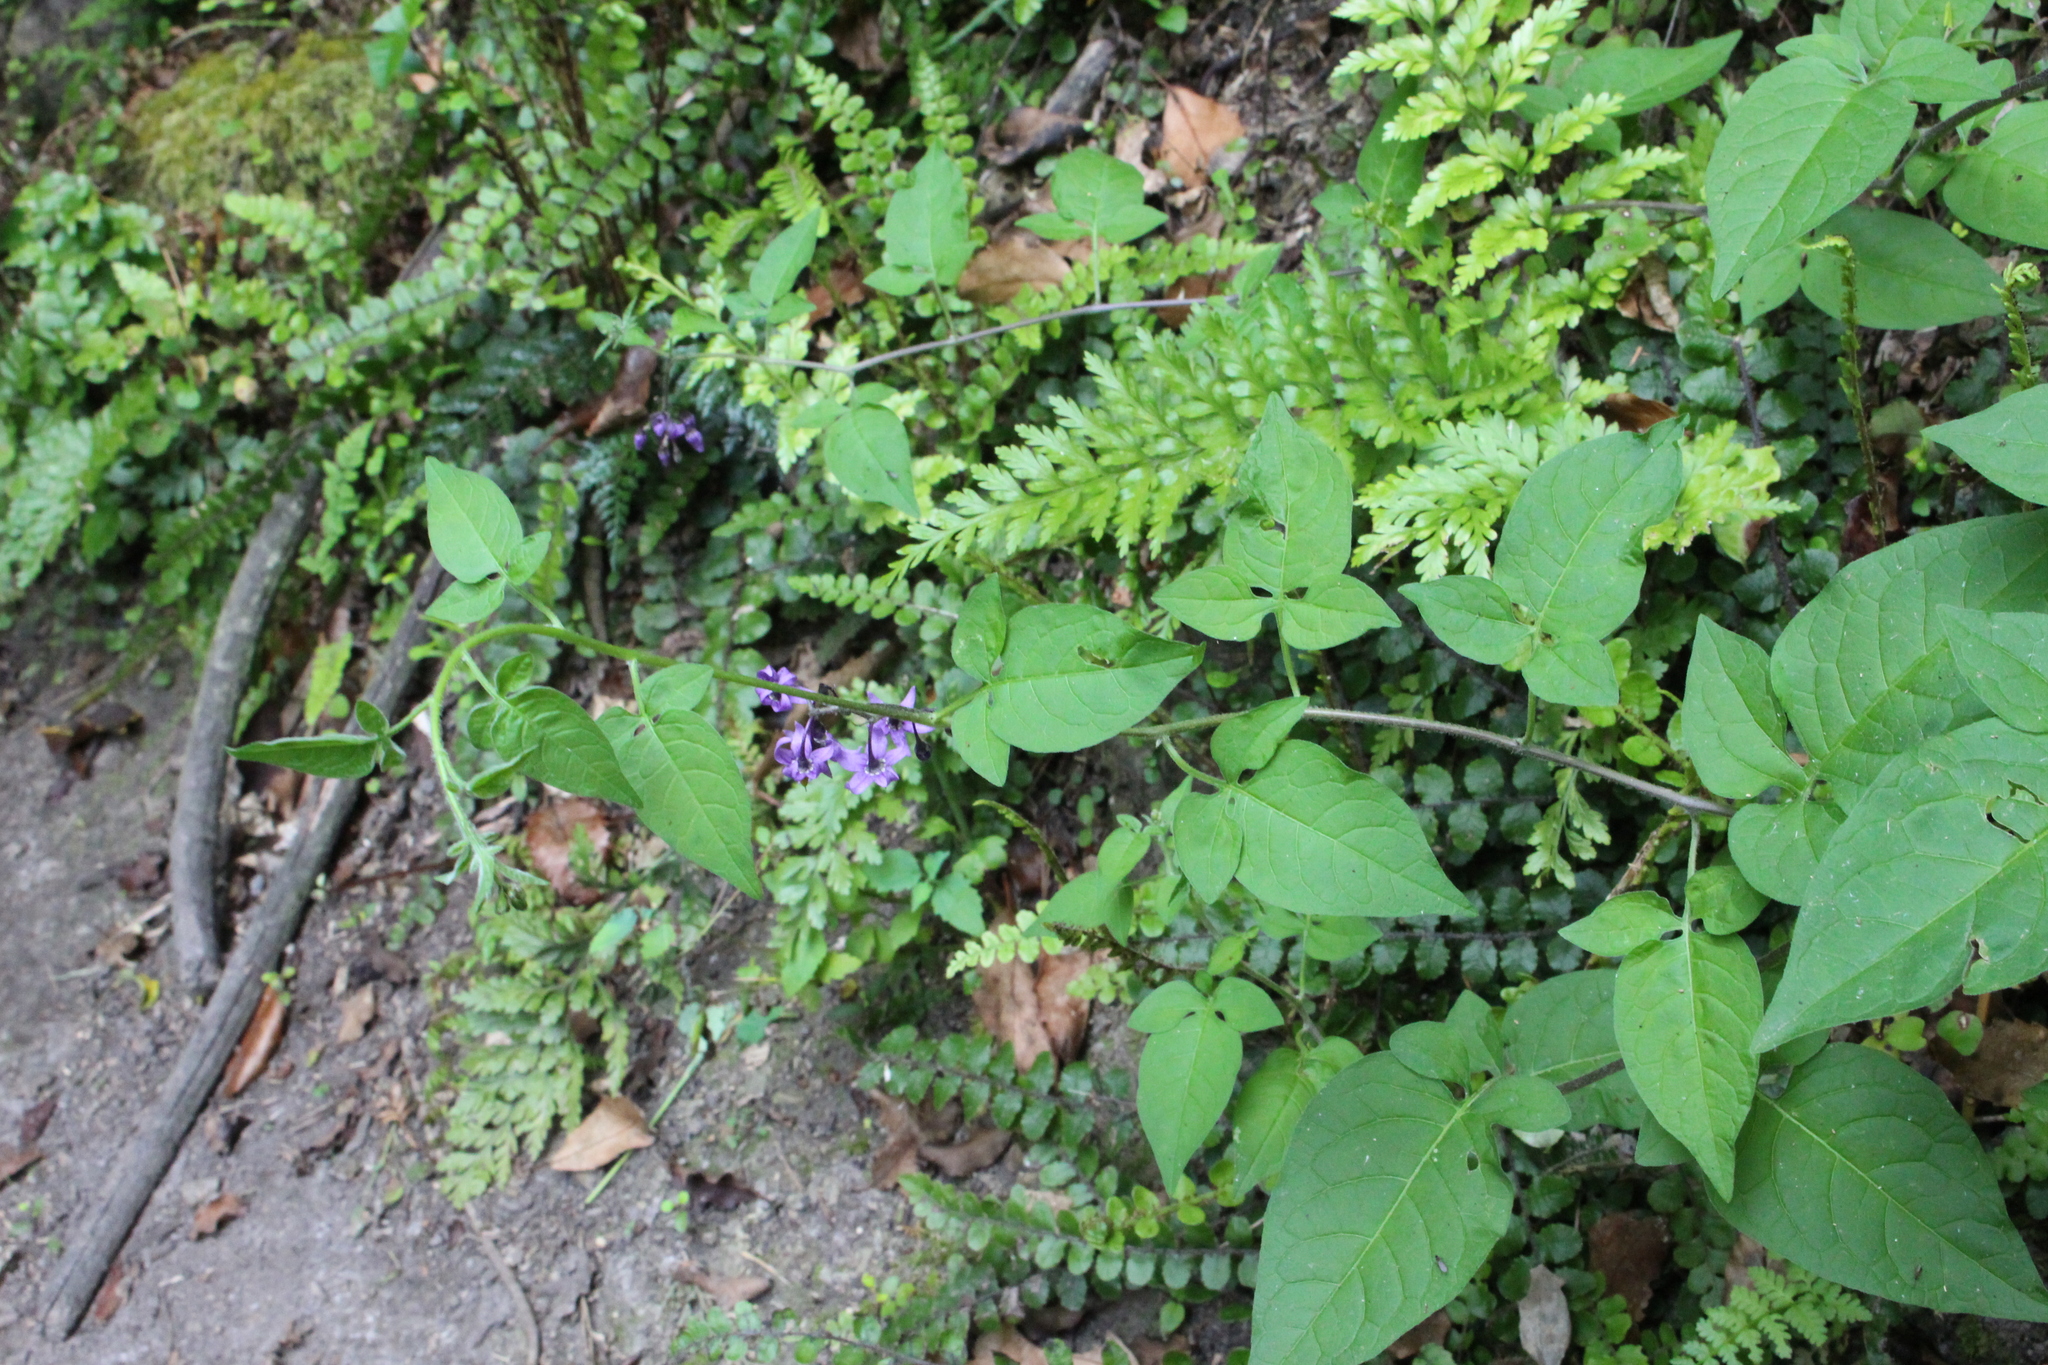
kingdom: Plantae
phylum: Tracheophyta
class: Magnoliopsida
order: Solanales
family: Solanaceae
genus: Solanum
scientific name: Solanum dulcamara
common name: Climbing nightshade
